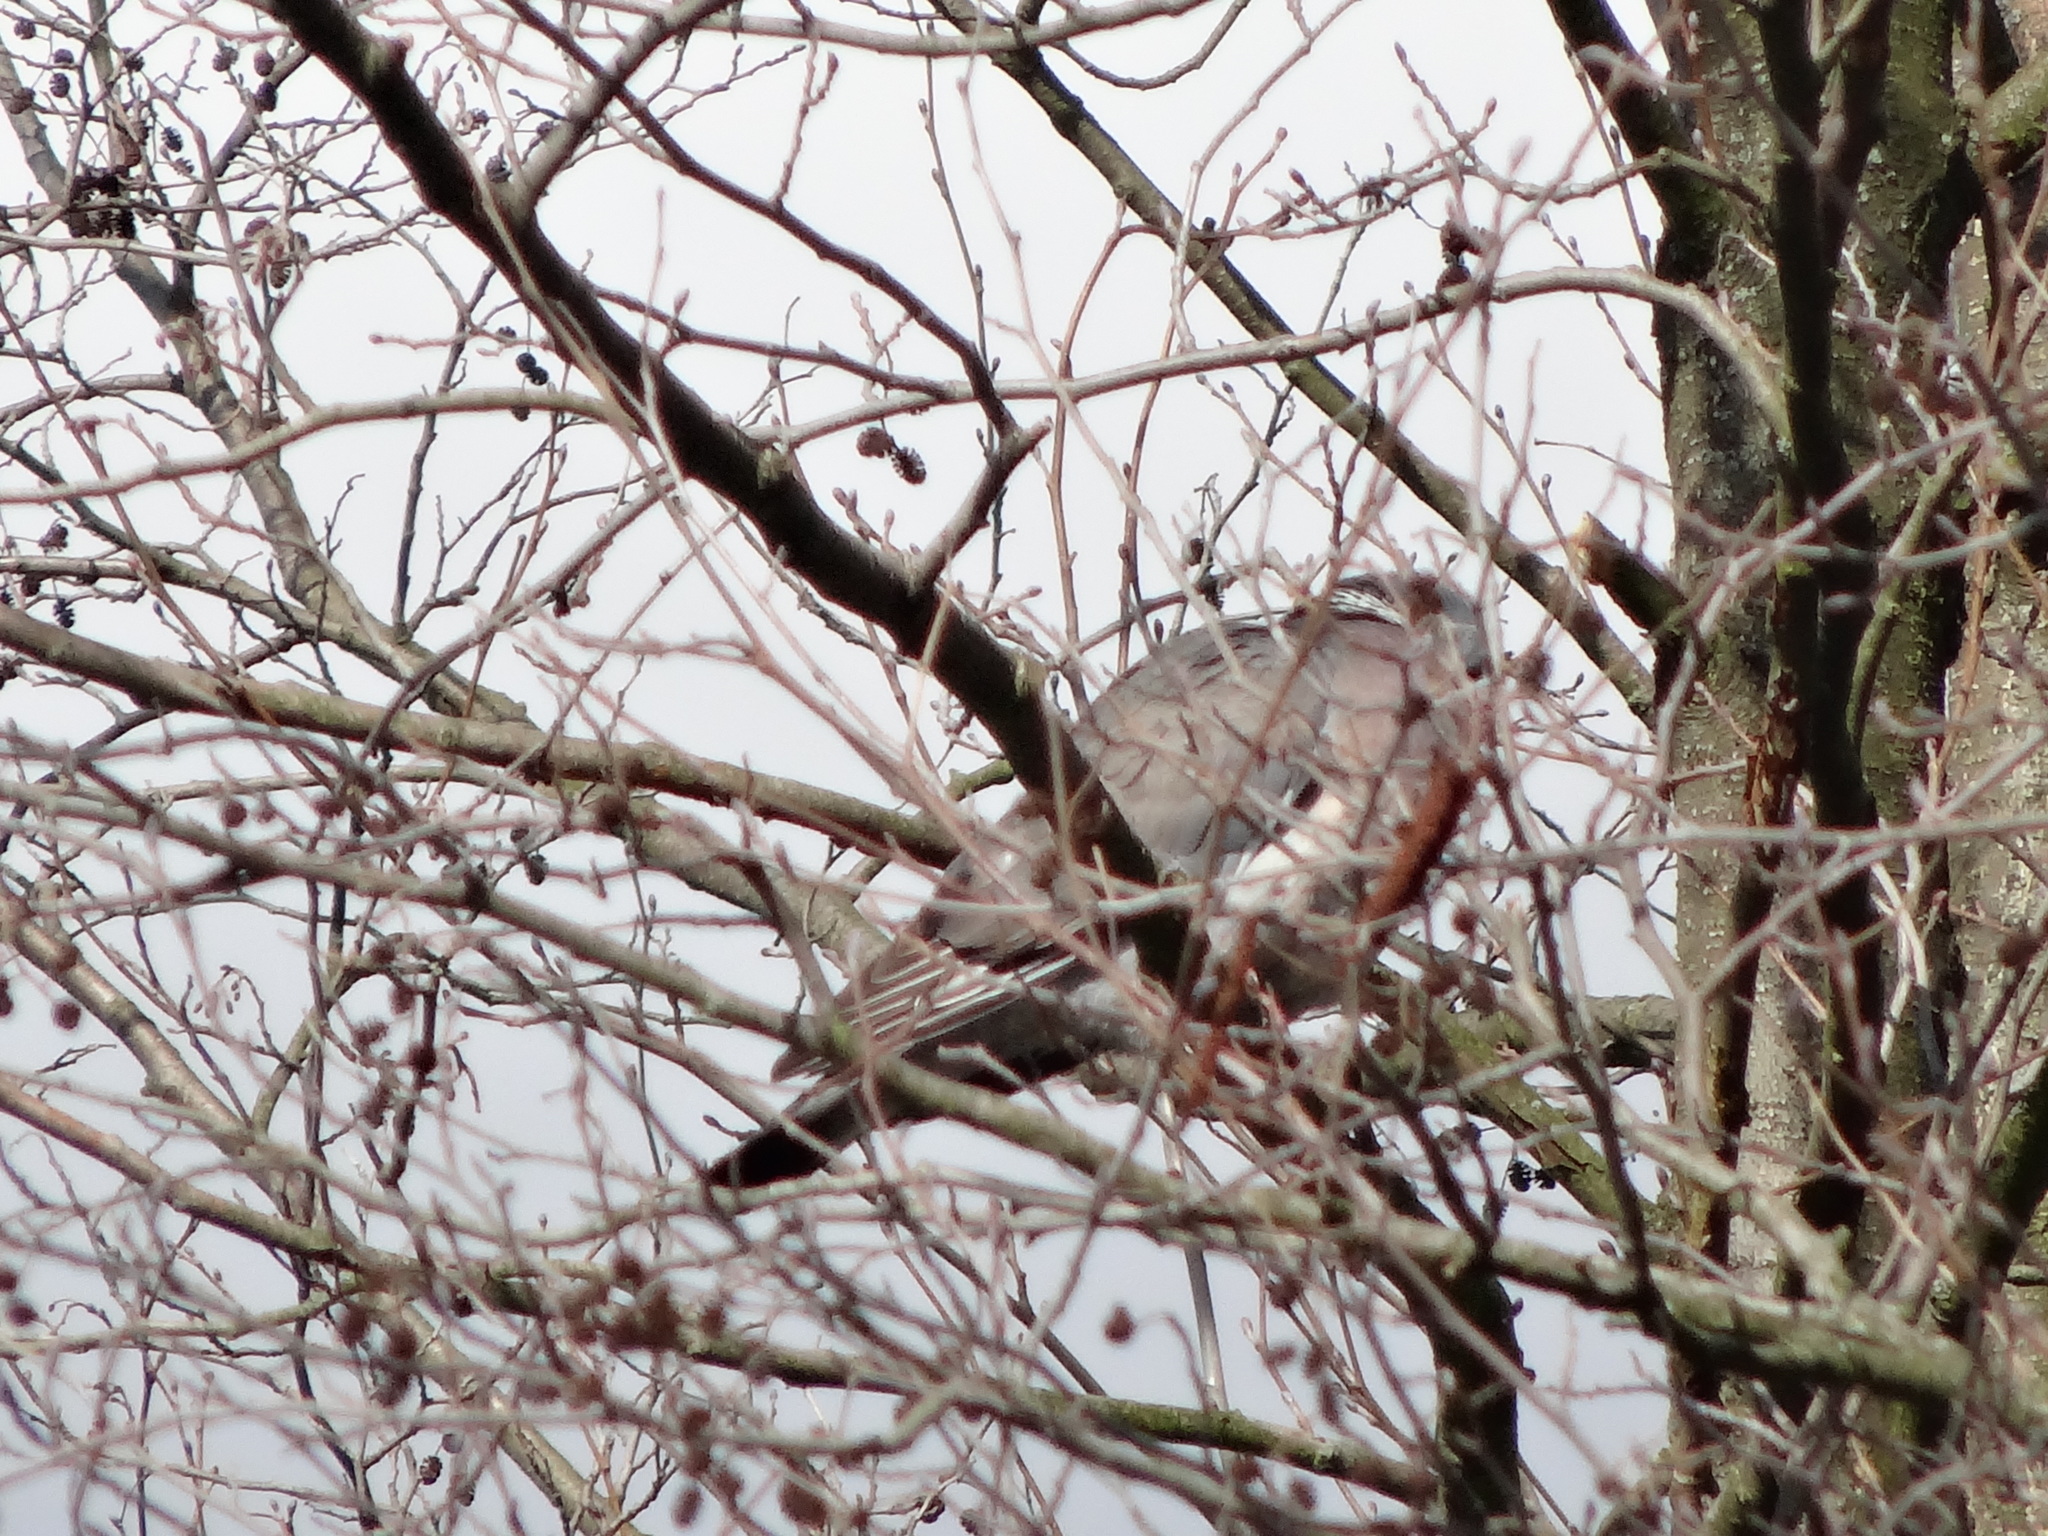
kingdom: Animalia
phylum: Chordata
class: Aves
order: Columbiformes
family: Columbidae
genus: Columba
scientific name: Columba palumbus
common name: Common wood pigeon
